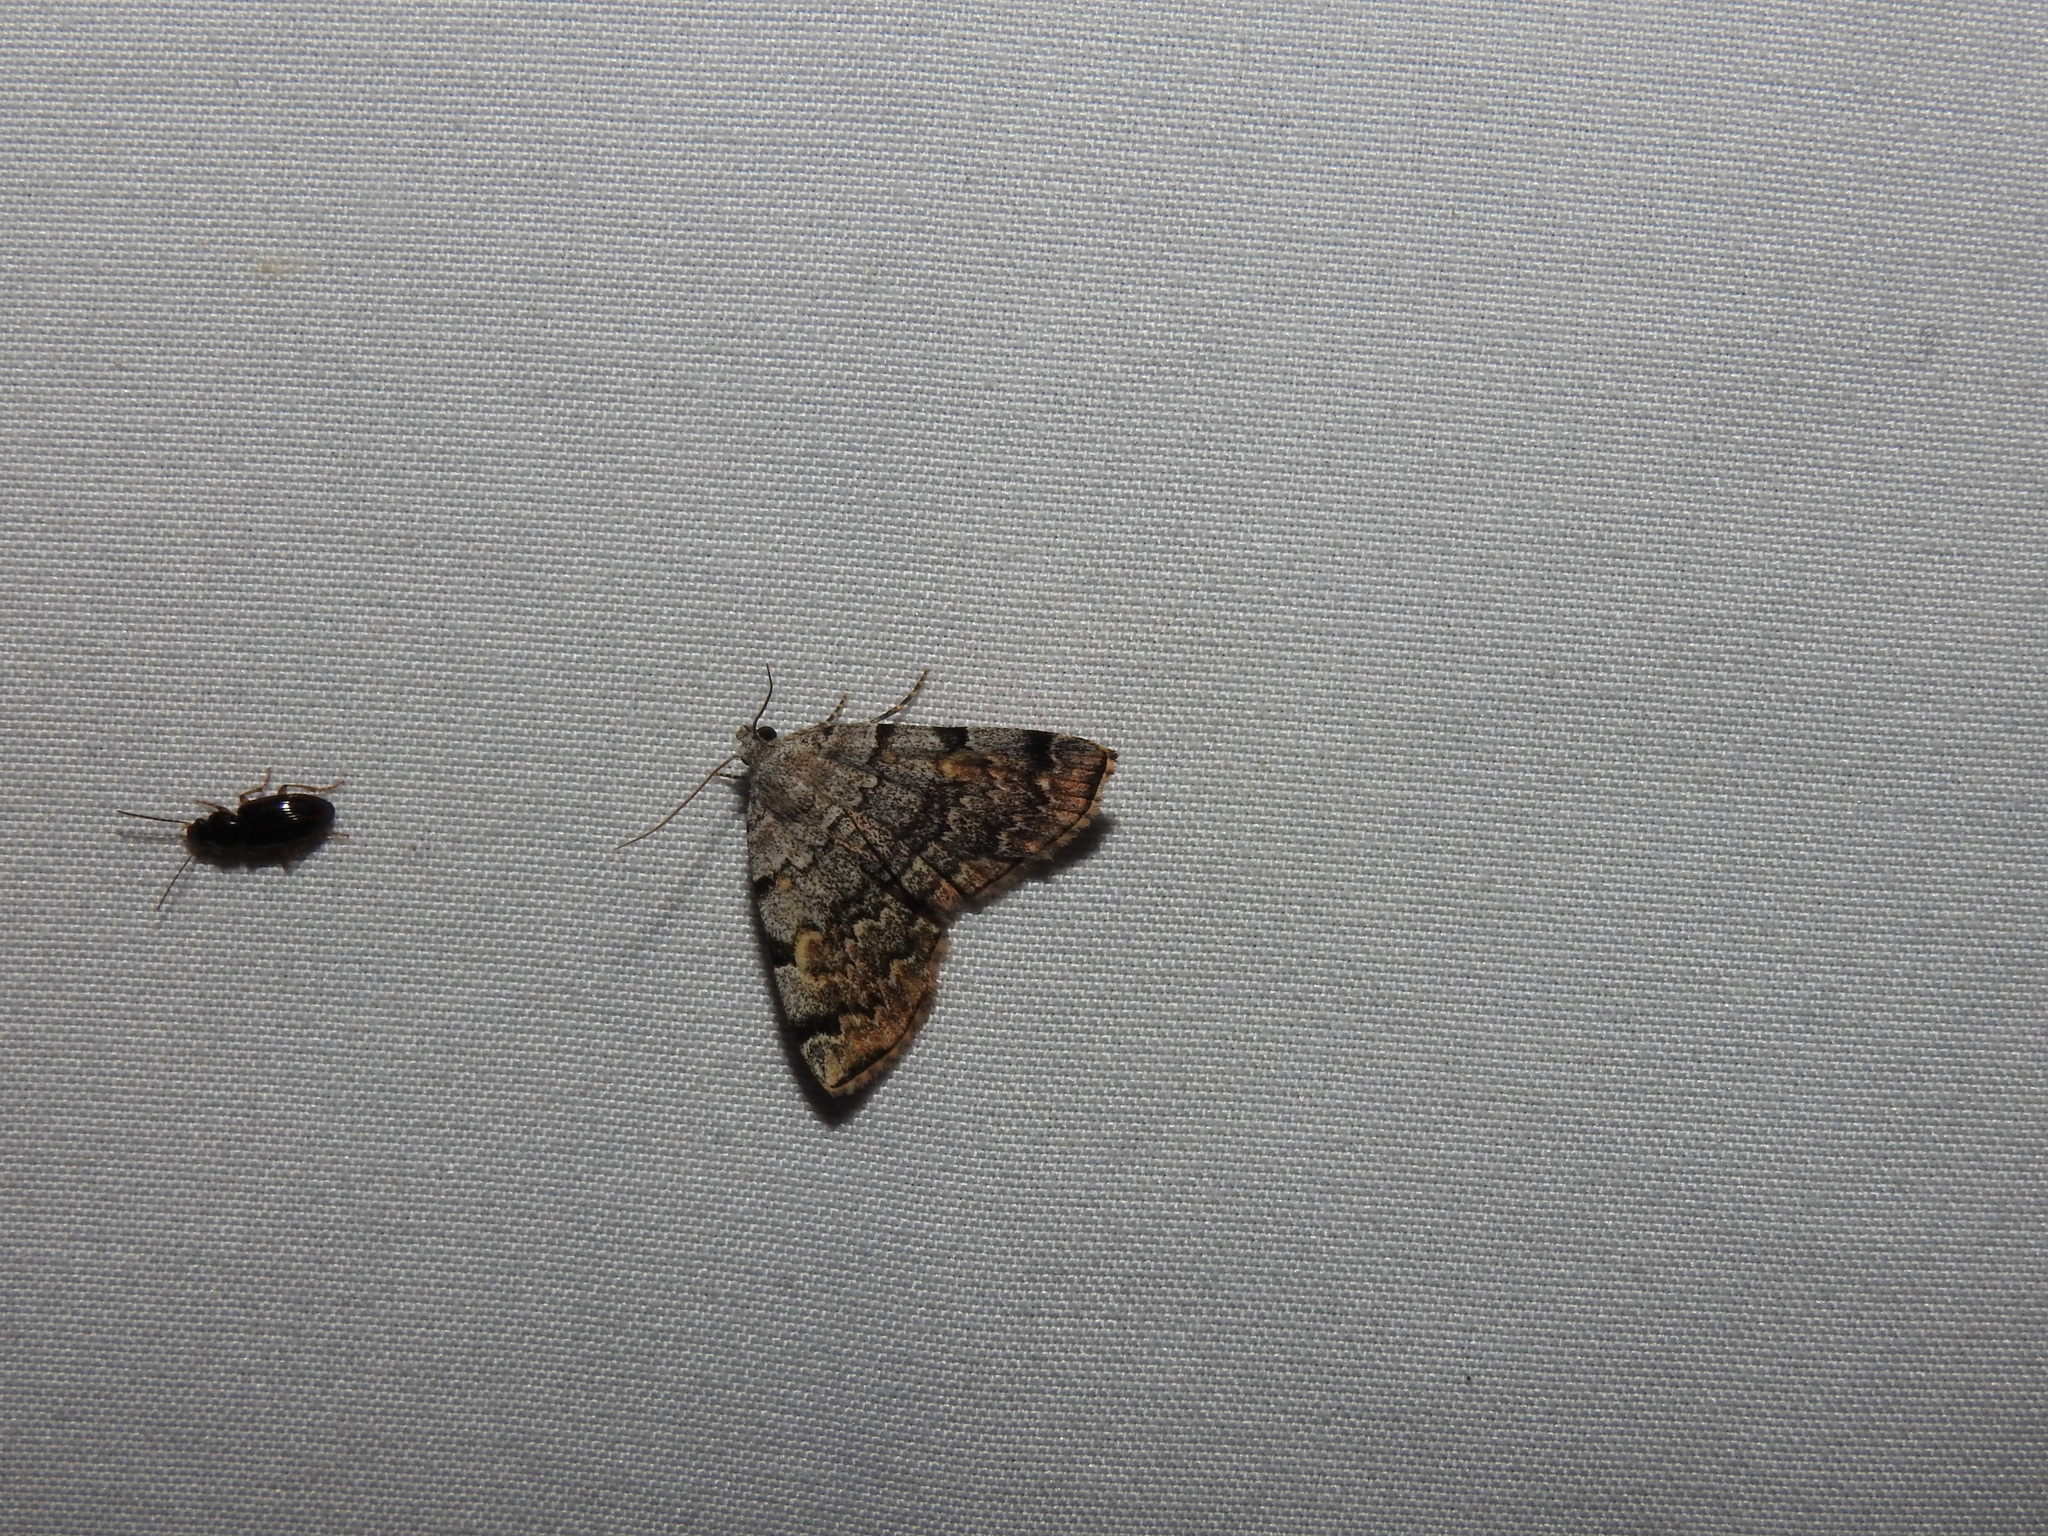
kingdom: Animalia
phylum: Arthropoda
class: Insecta
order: Lepidoptera
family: Erebidae
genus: Idia
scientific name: Idia americalis
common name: American idia moth
